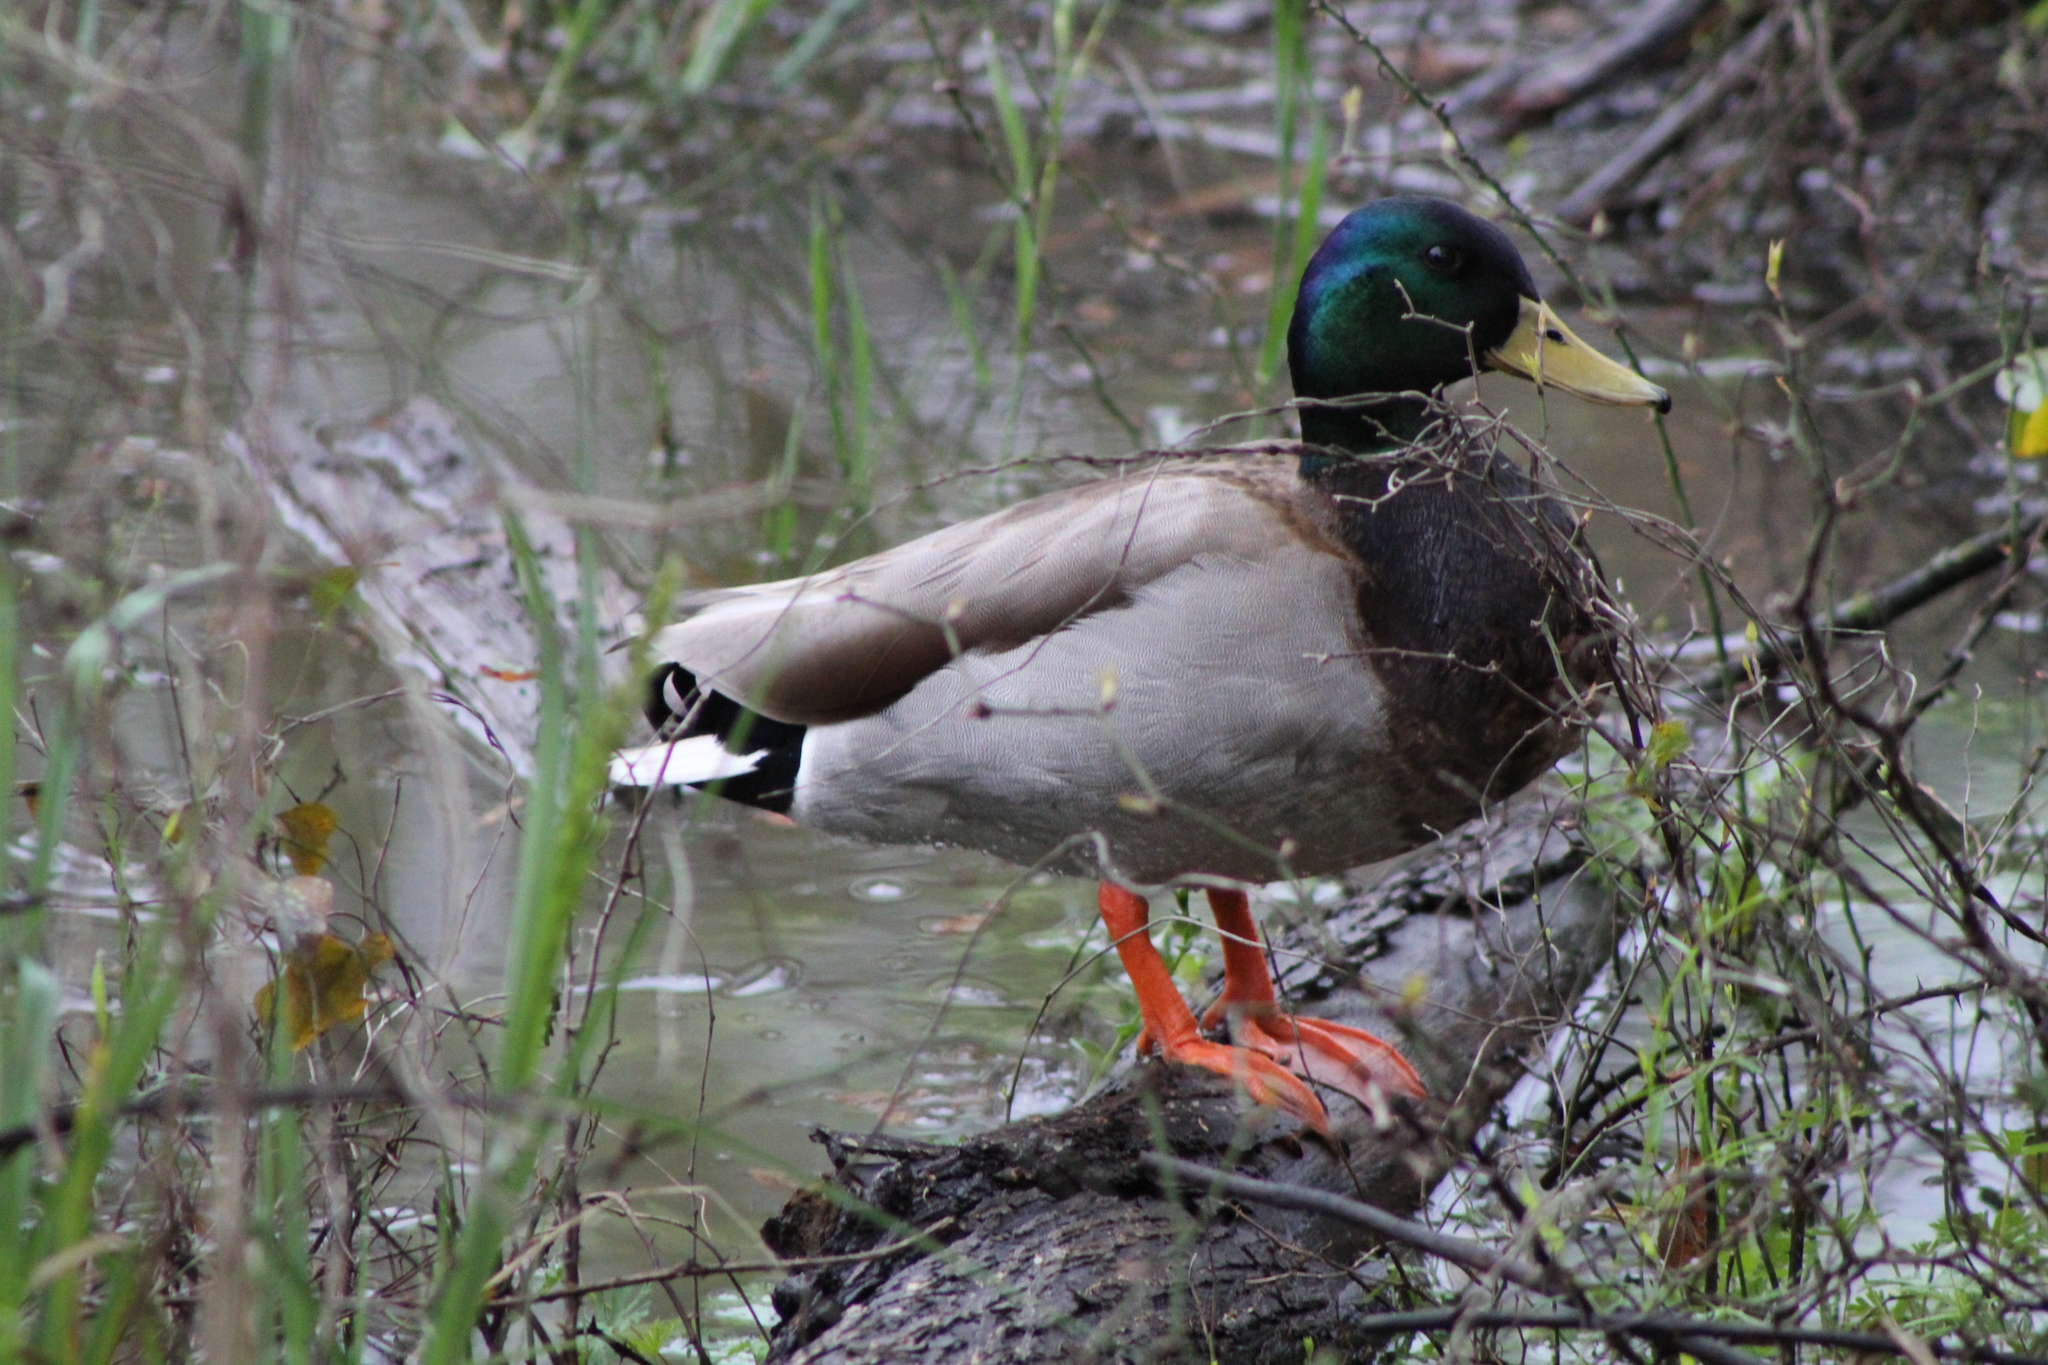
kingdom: Animalia
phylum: Chordata
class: Aves
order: Anseriformes
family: Anatidae
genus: Anas
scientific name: Anas platyrhynchos
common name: Mallard
